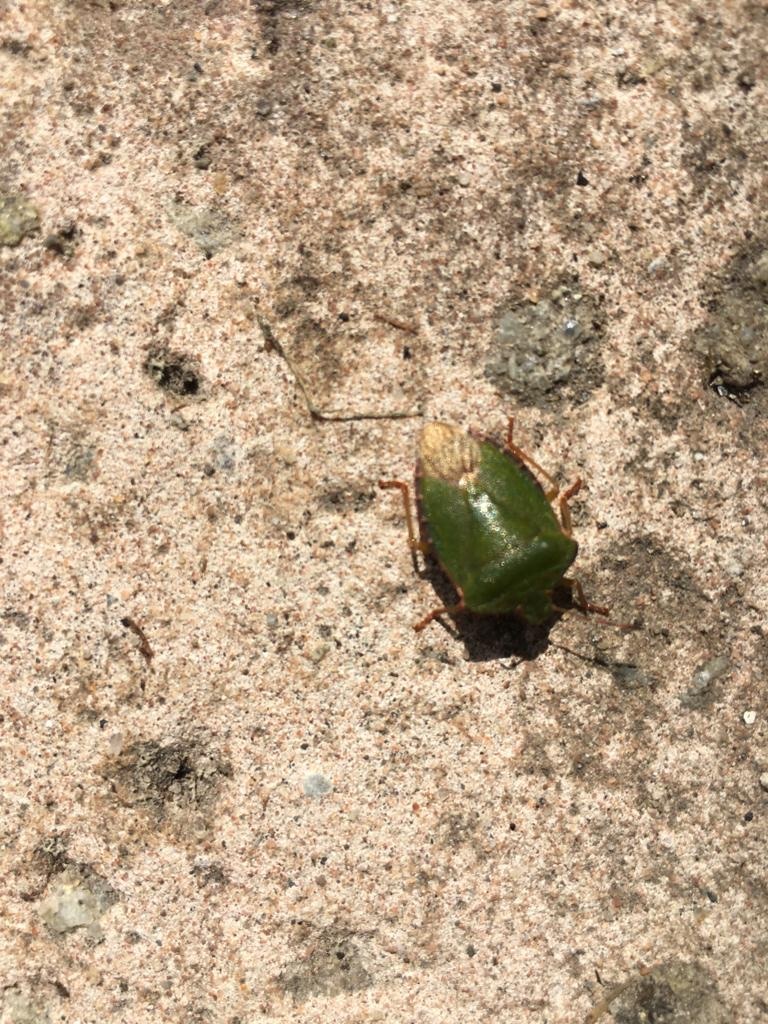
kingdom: Animalia
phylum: Arthropoda
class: Insecta
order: Hemiptera
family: Pentatomidae
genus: Palomena
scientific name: Palomena prasina
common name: Green shieldbug
